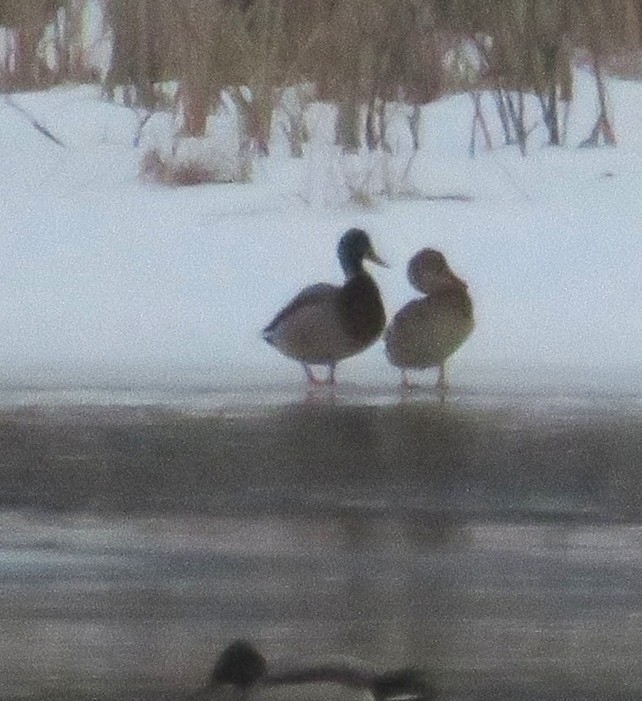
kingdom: Animalia
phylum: Chordata
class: Aves
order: Anseriformes
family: Anatidae
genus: Anas
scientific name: Anas platyrhynchos
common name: Mallard
